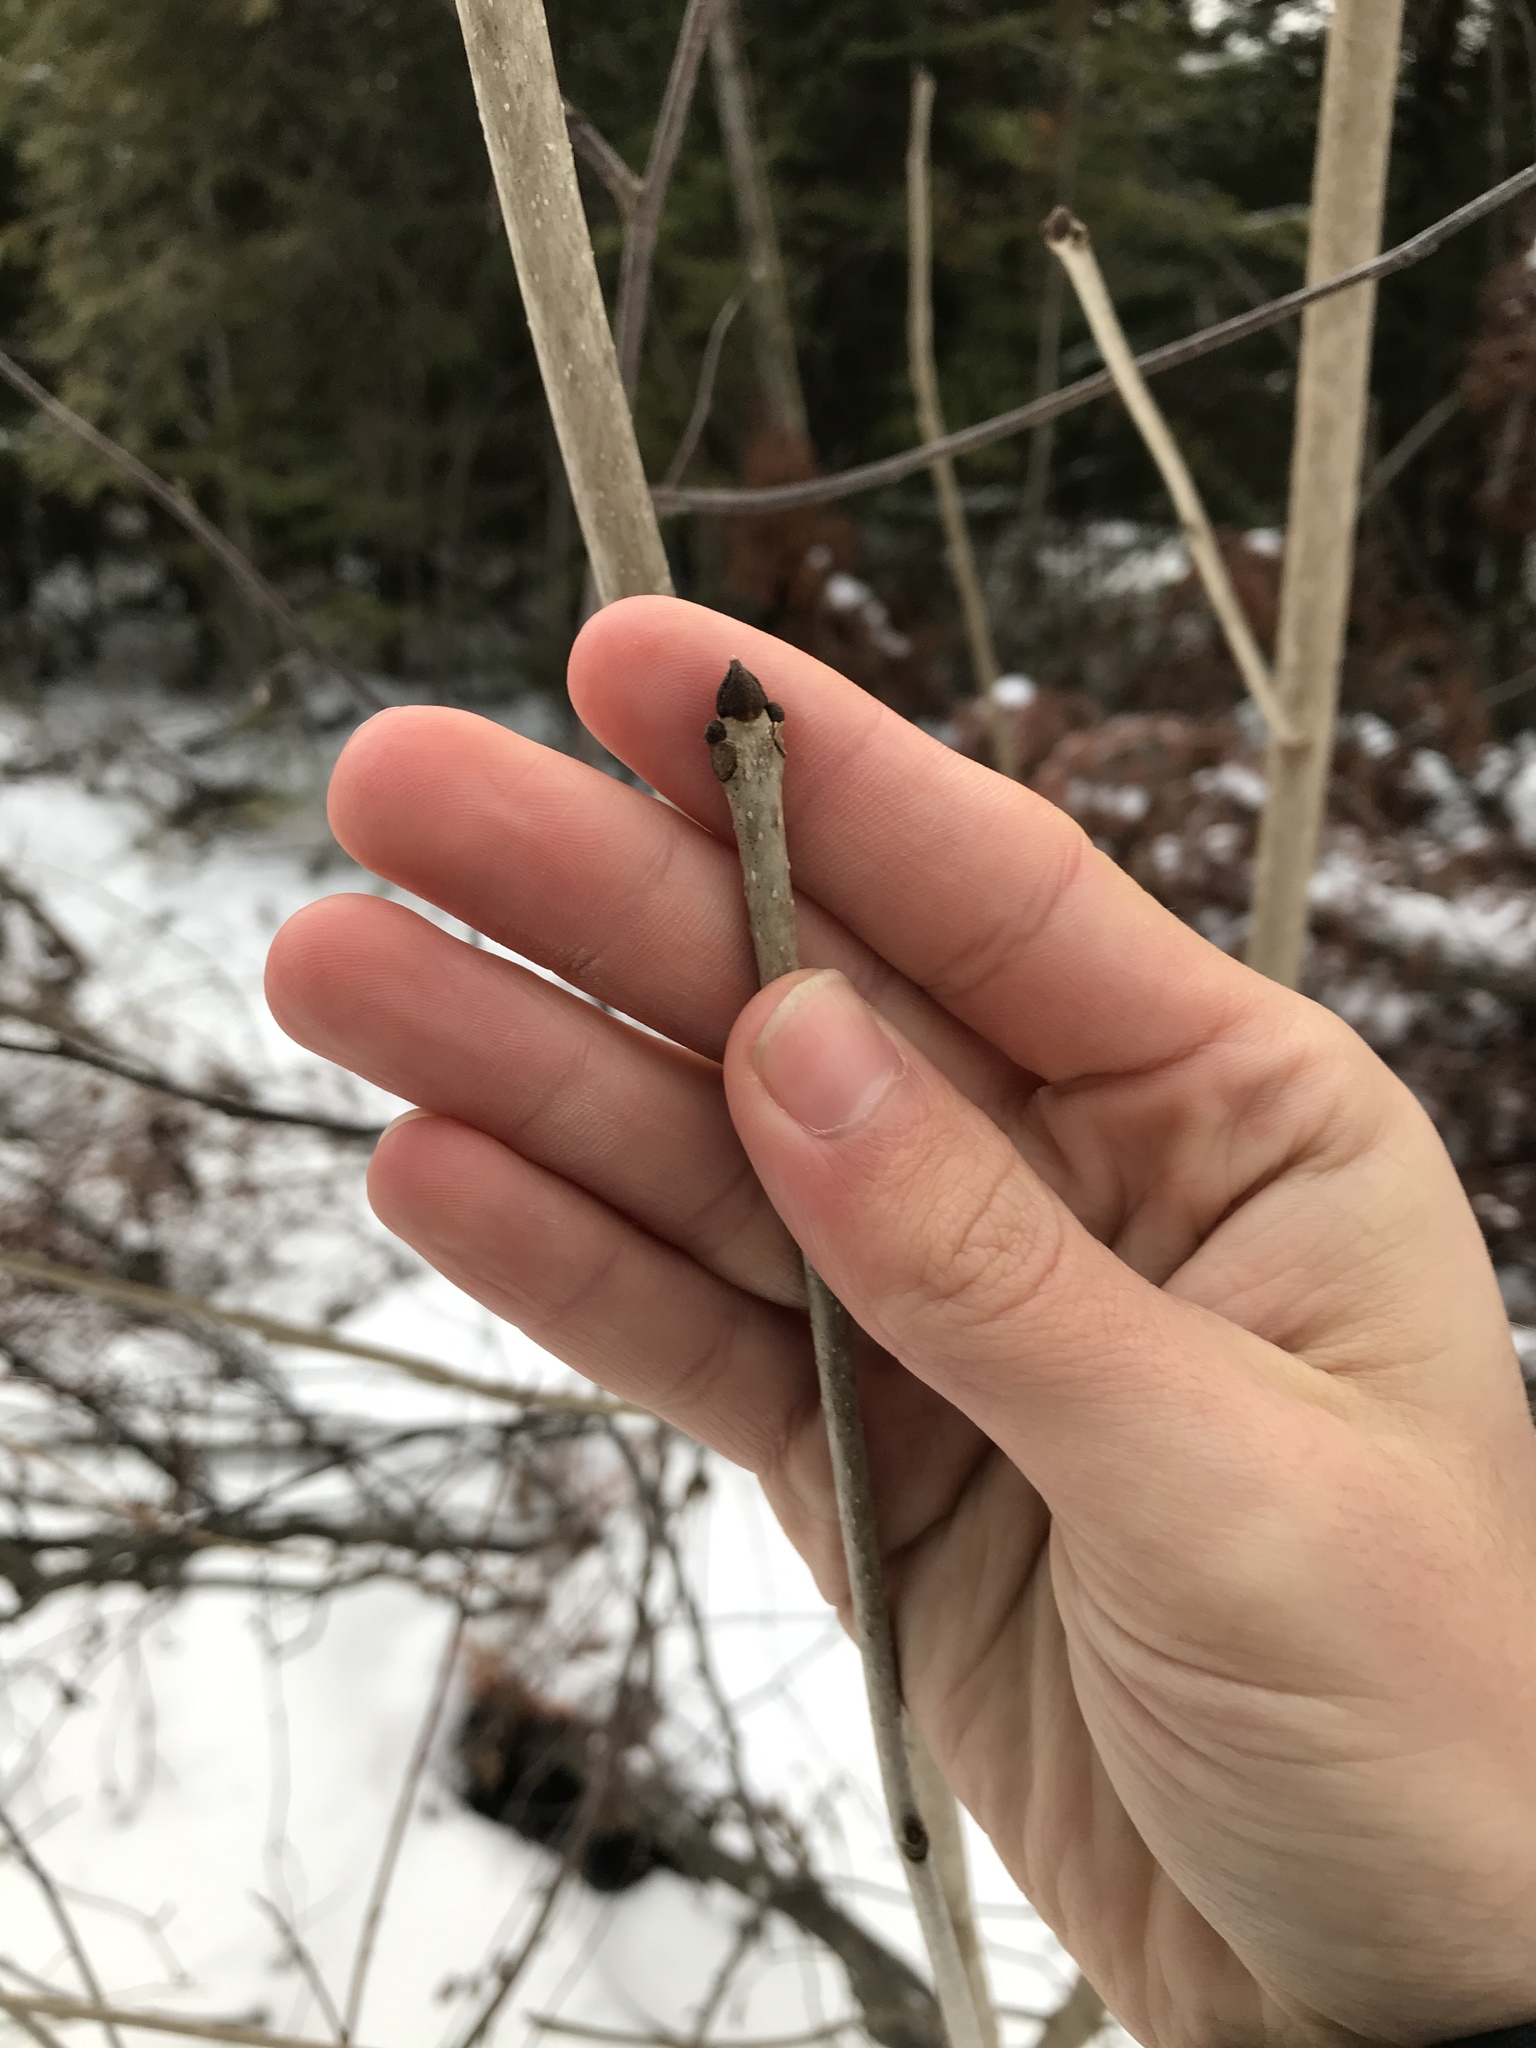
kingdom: Plantae
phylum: Tracheophyta
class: Magnoliopsida
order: Lamiales
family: Oleaceae
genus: Fraxinus
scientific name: Fraxinus nigra
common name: Black ash
